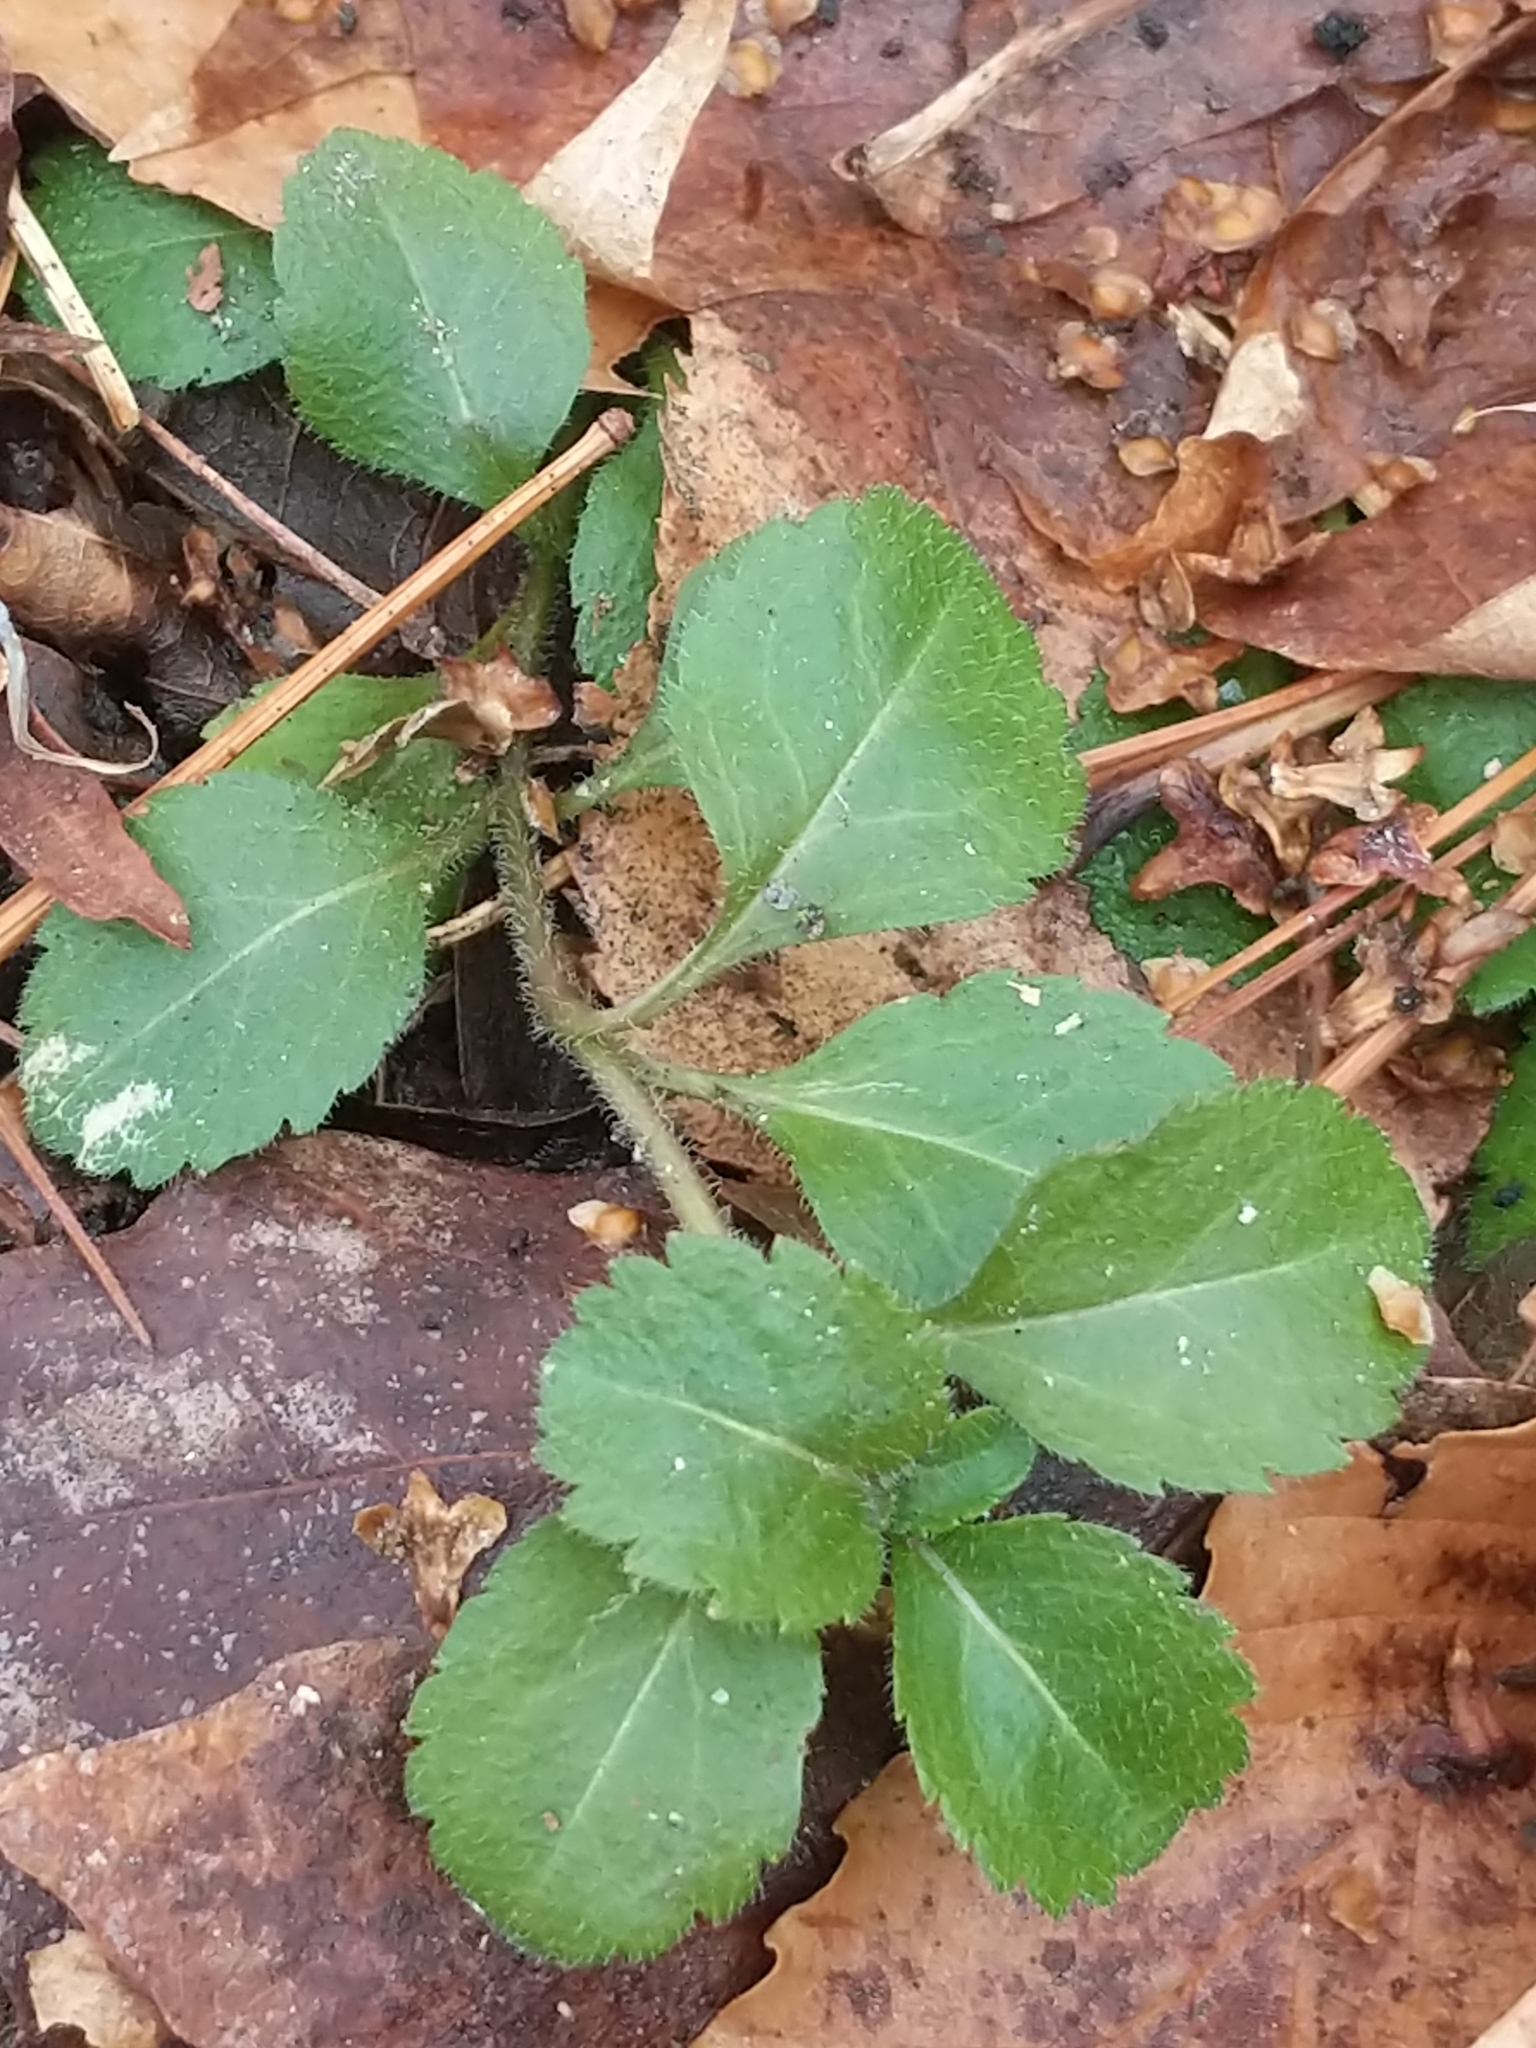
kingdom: Plantae
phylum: Tracheophyta
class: Magnoliopsida
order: Lamiales
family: Plantaginaceae
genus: Veronica
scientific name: Veronica officinalis
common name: Common speedwell
